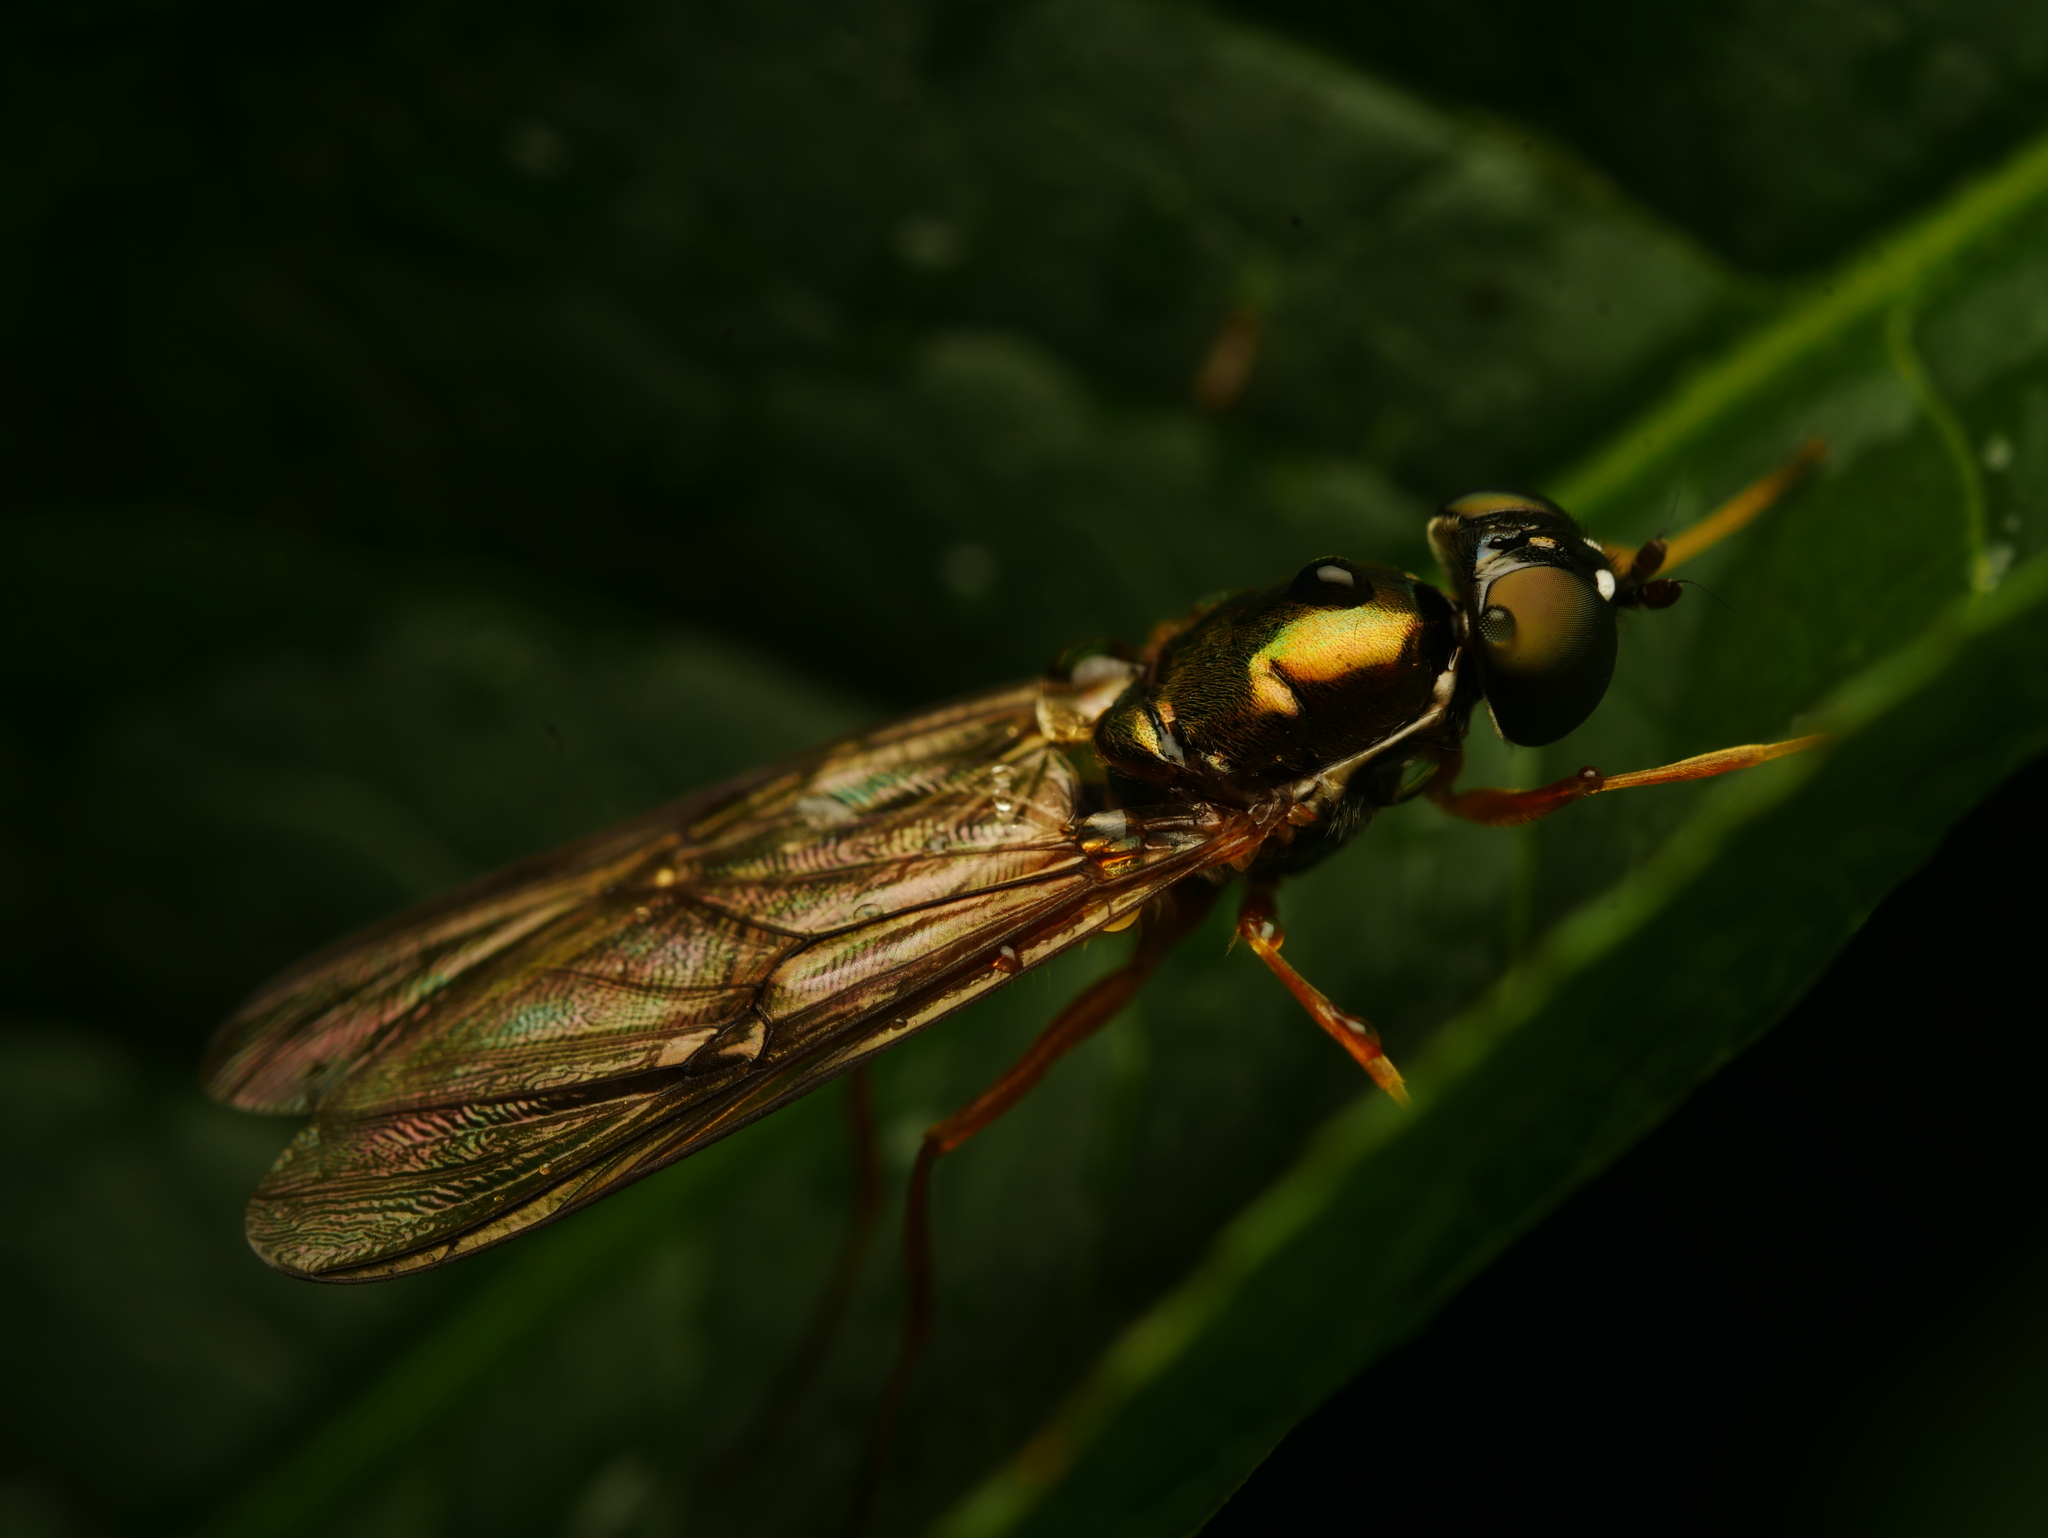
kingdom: Animalia
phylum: Arthropoda
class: Insecta
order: Diptera
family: Stratiomyidae
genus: Sargus
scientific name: Sargus bipunctatus
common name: Twin-spot centurion
